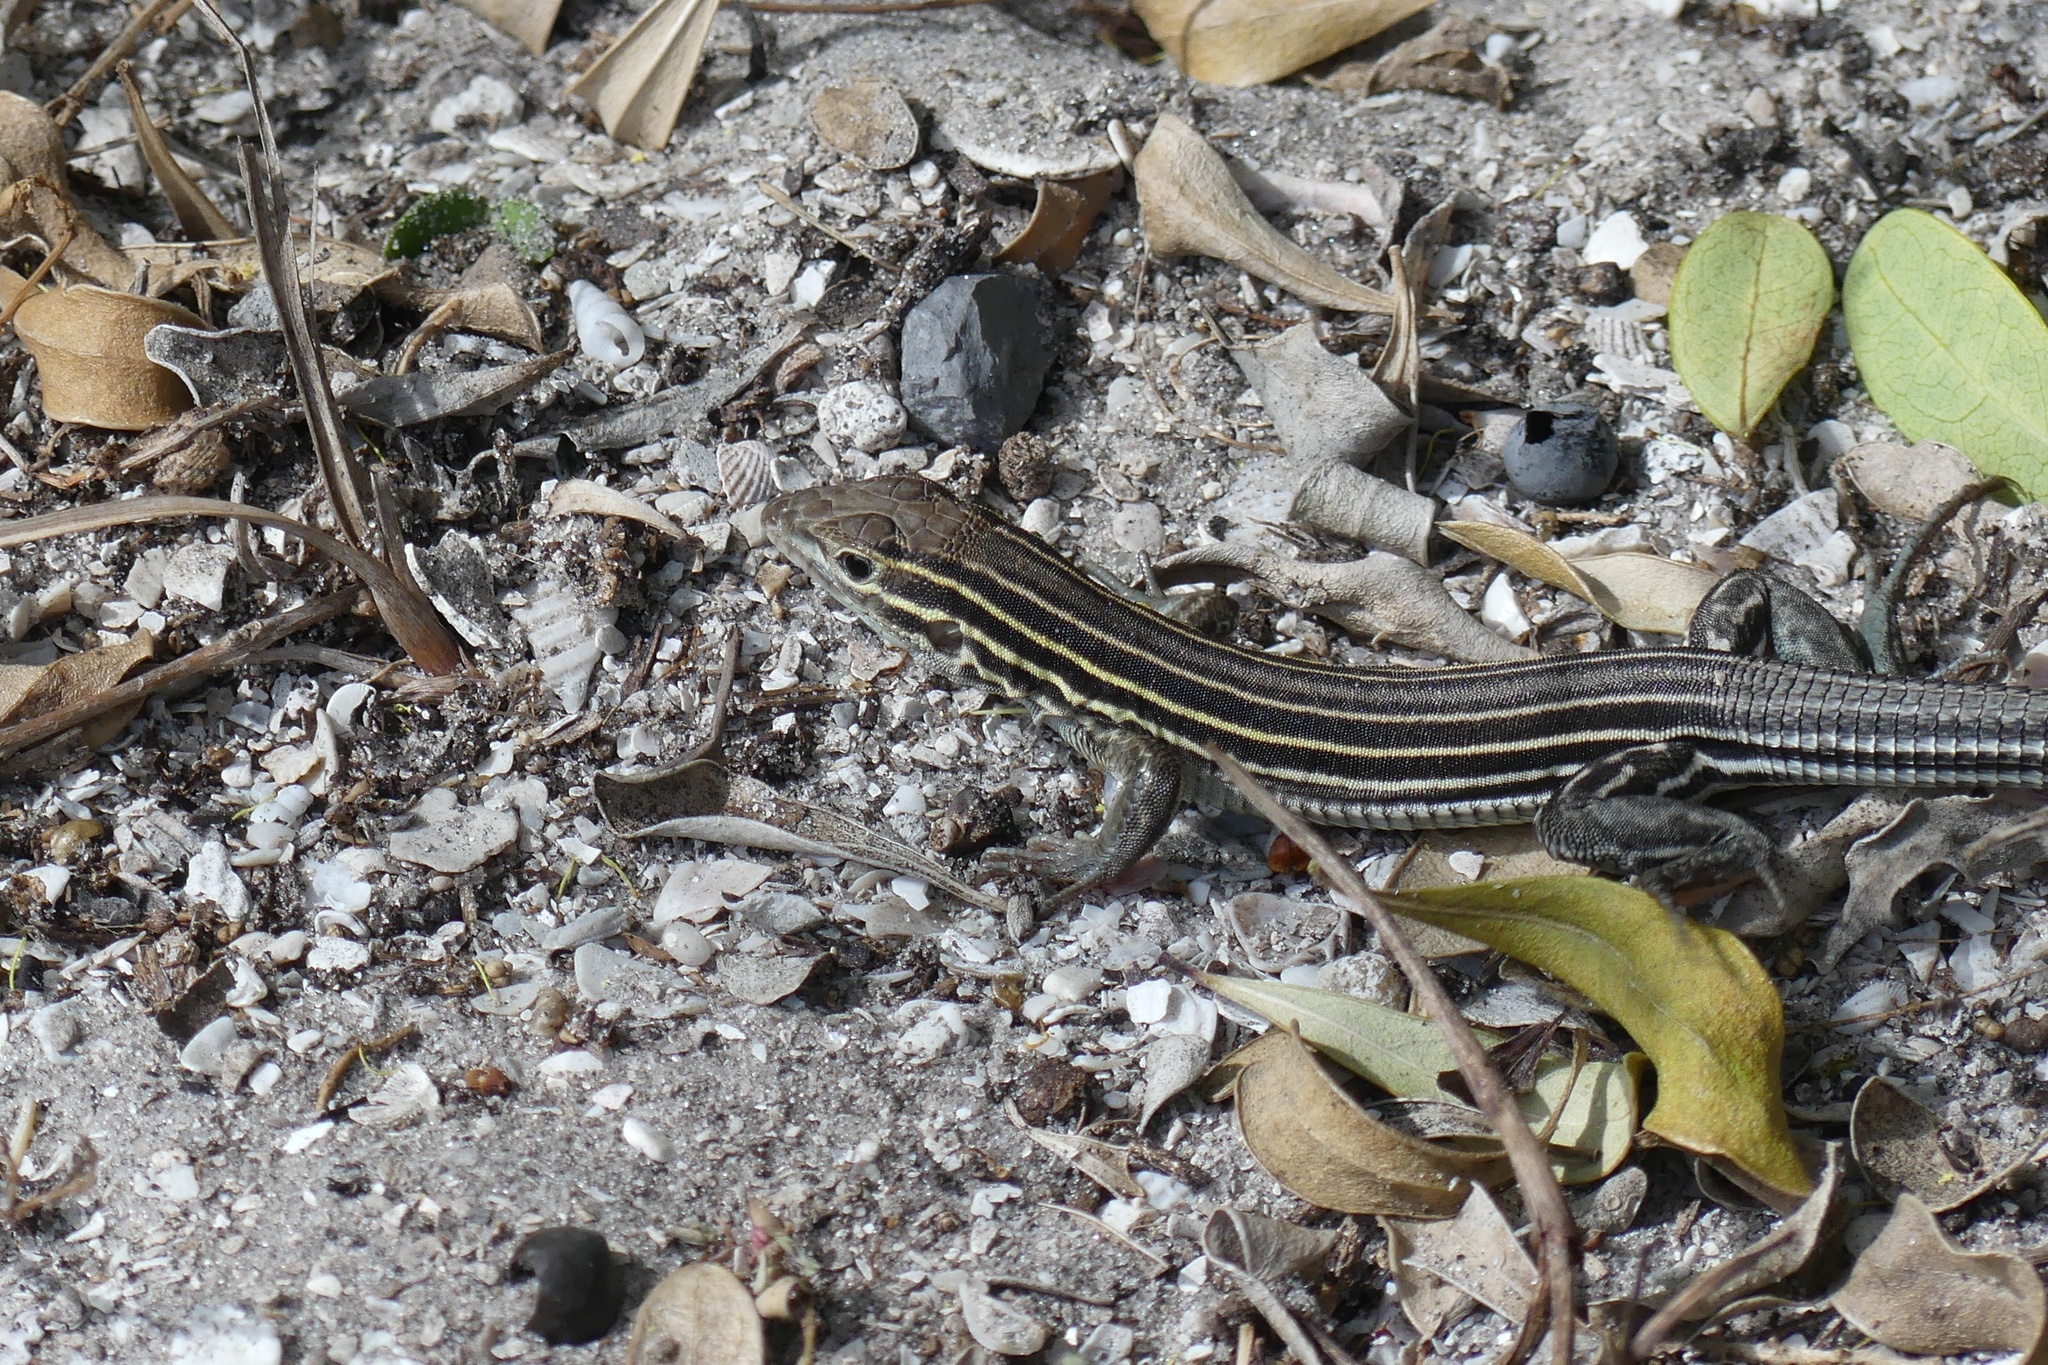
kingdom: Animalia
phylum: Chordata
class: Squamata
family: Teiidae
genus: Aspidoscelis
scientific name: Aspidoscelis sexlineatus
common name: Six-lined racerunner
